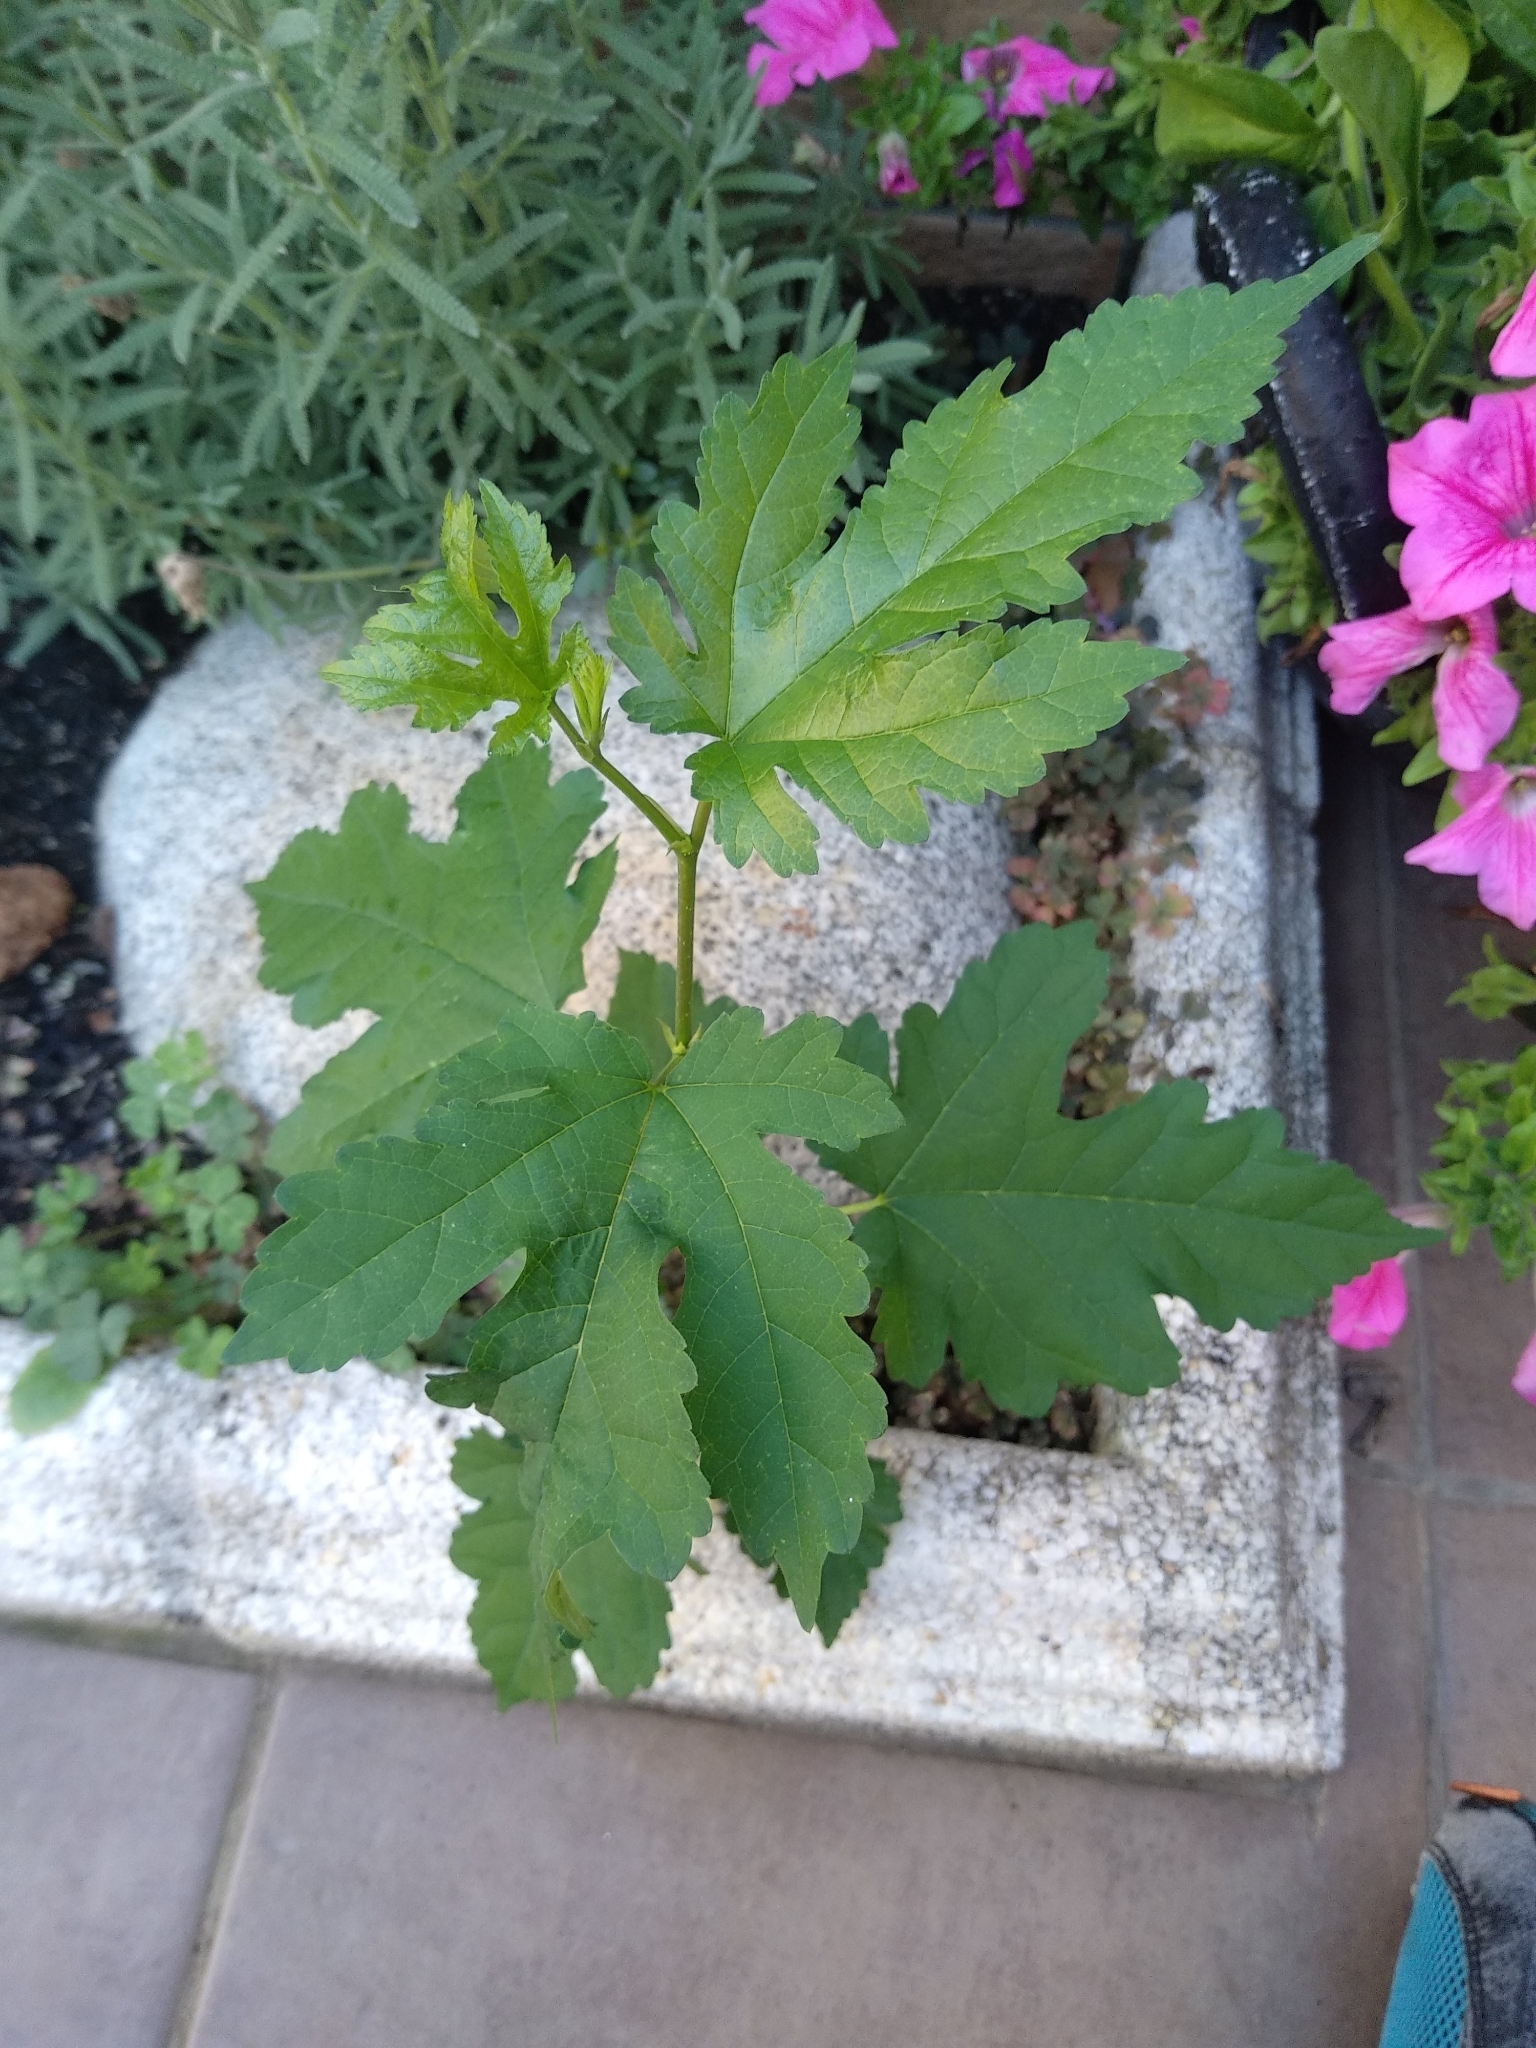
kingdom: Plantae
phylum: Tracheophyta
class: Magnoliopsida
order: Rosales
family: Moraceae
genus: Morus
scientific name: Morus indica
